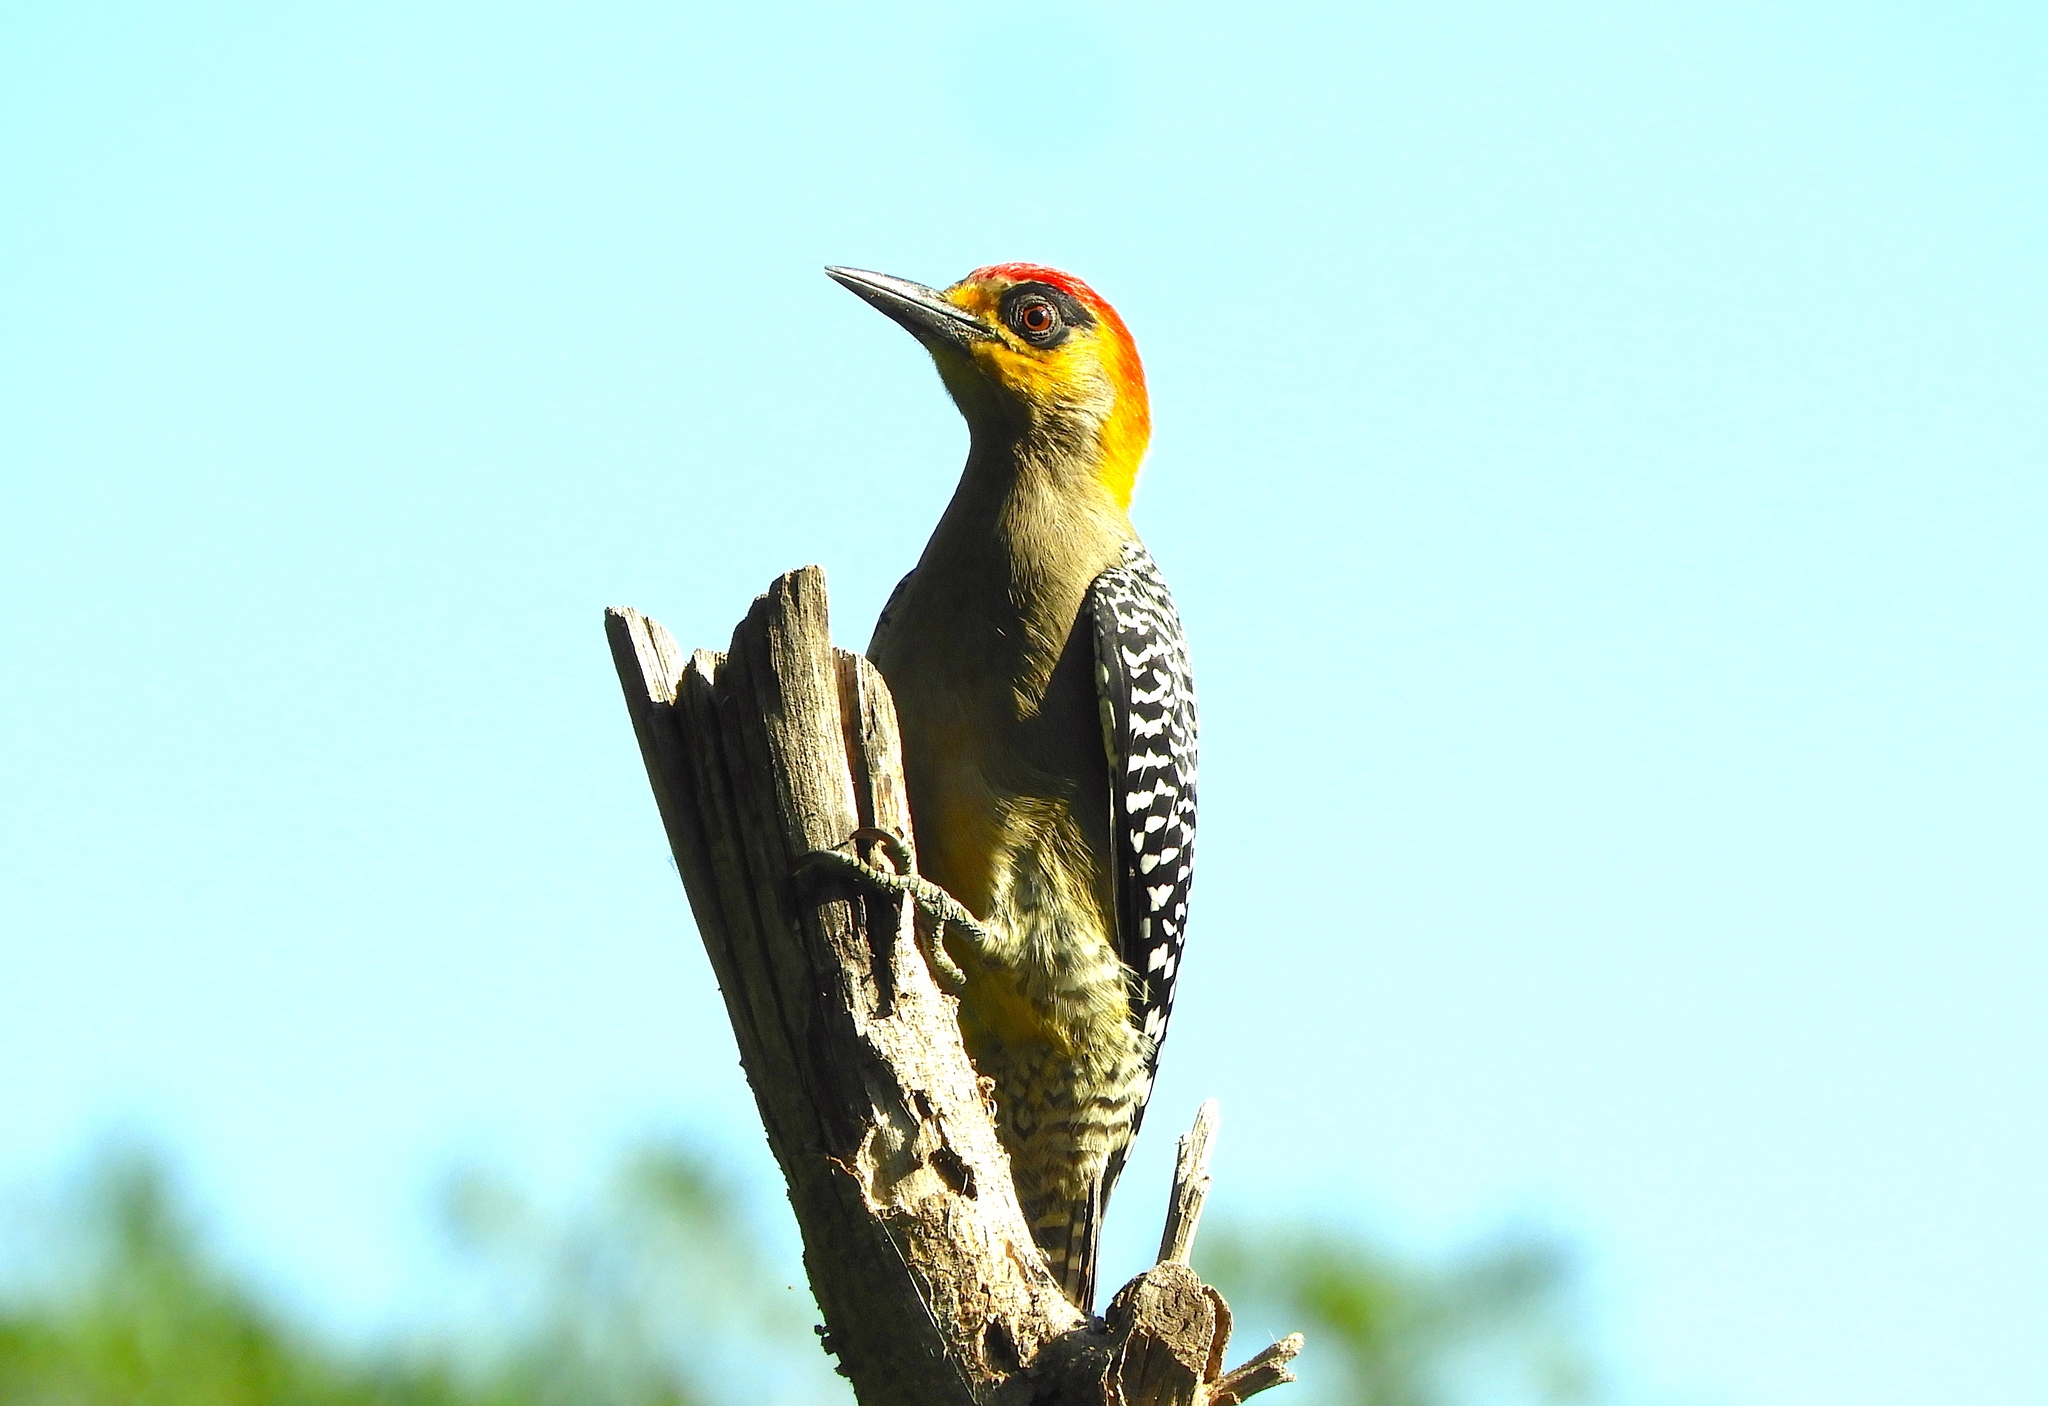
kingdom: Animalia
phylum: Chordata
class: Aves
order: Piciformes
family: Picidae
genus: Melanerpes
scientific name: Melanerpes chrysogenys
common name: Golden-cheeked woodpecker
